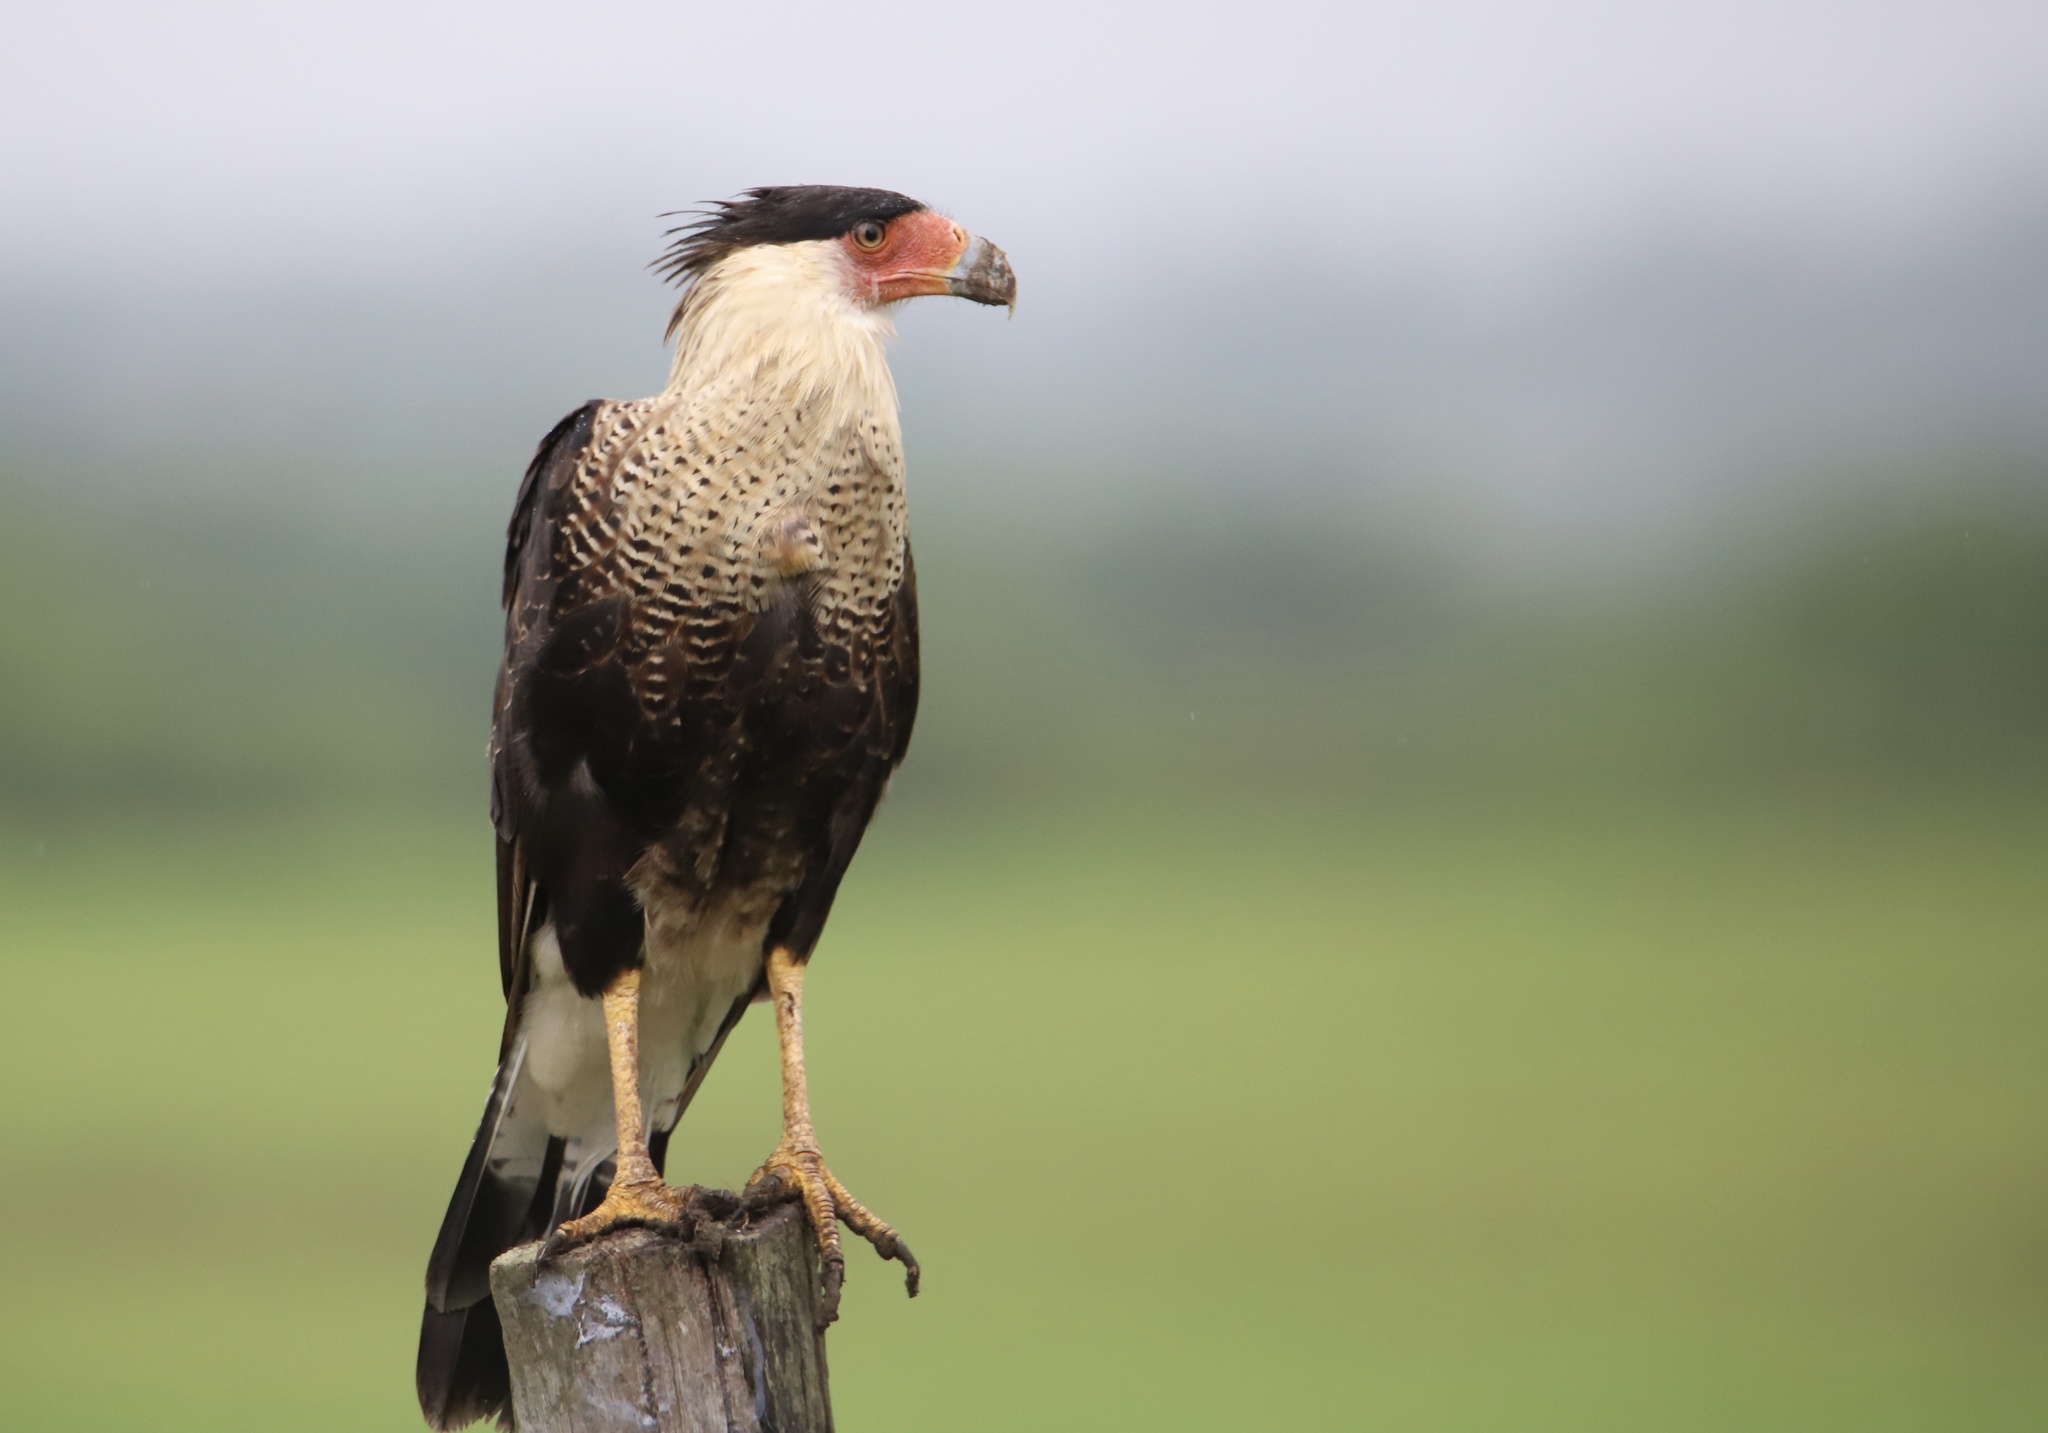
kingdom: Animalia
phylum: Chordata
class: Aves
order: Falconiformes
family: Falconidae
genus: Caracara
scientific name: Caracara plancus
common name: Southern caracara
